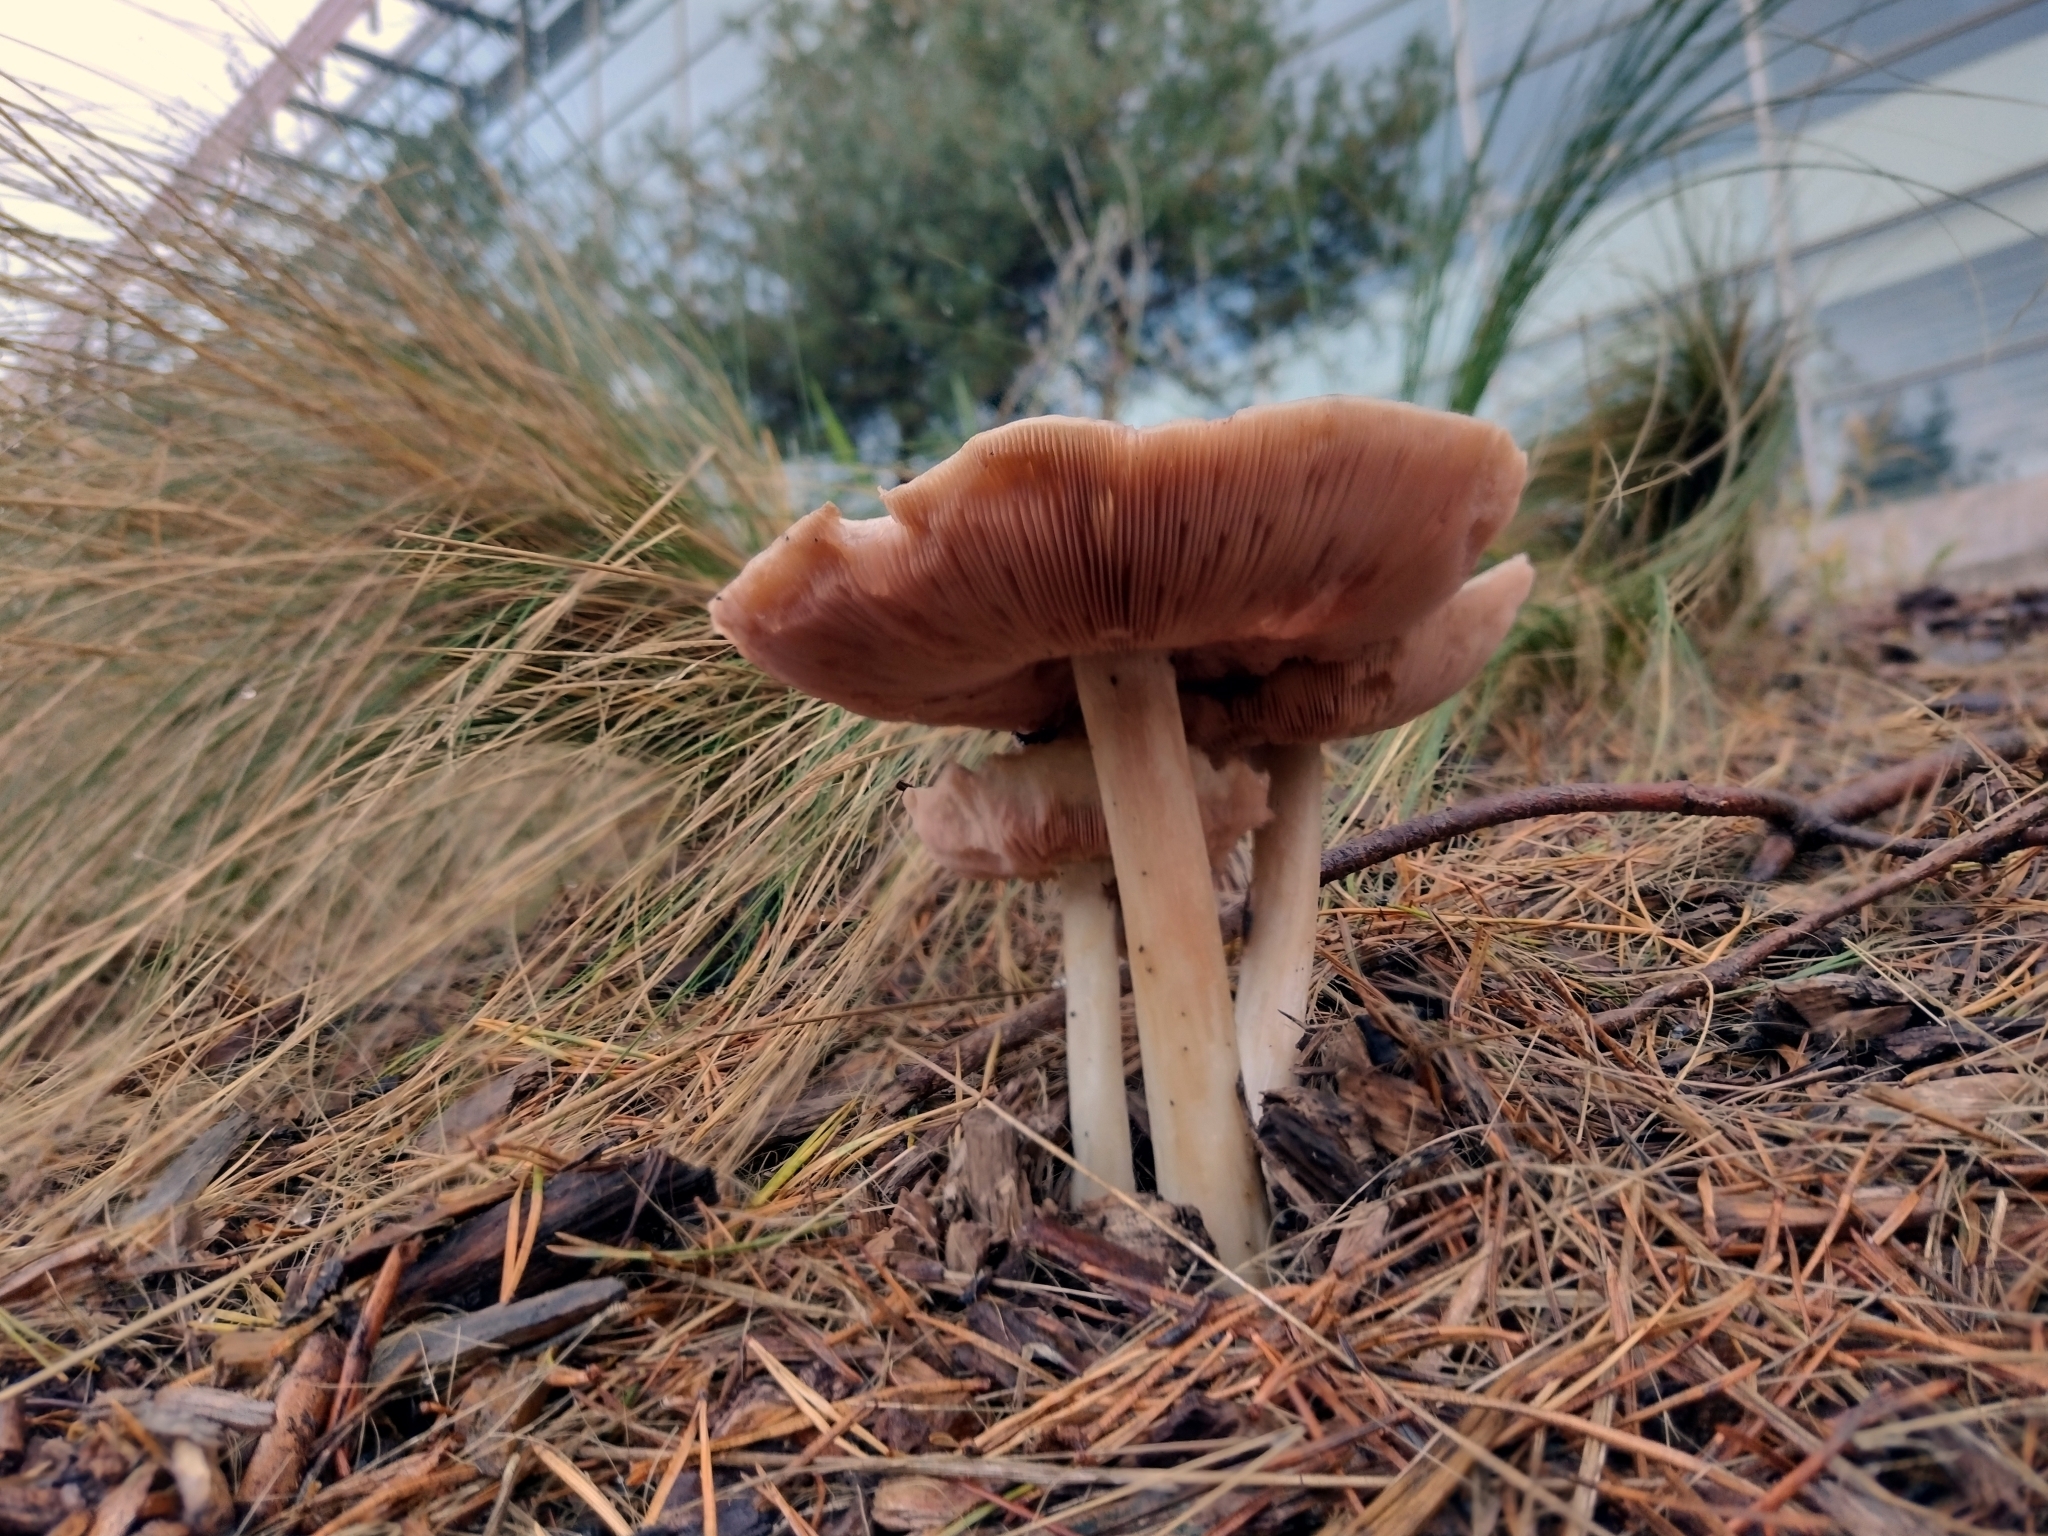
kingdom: Fungi
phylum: Basidiomycota
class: Agaricomycetes
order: Agaricales
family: Pluteaceae
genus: Volvopluteus
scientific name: Volvopluteus gloiocephalus
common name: Stubble rosegill
